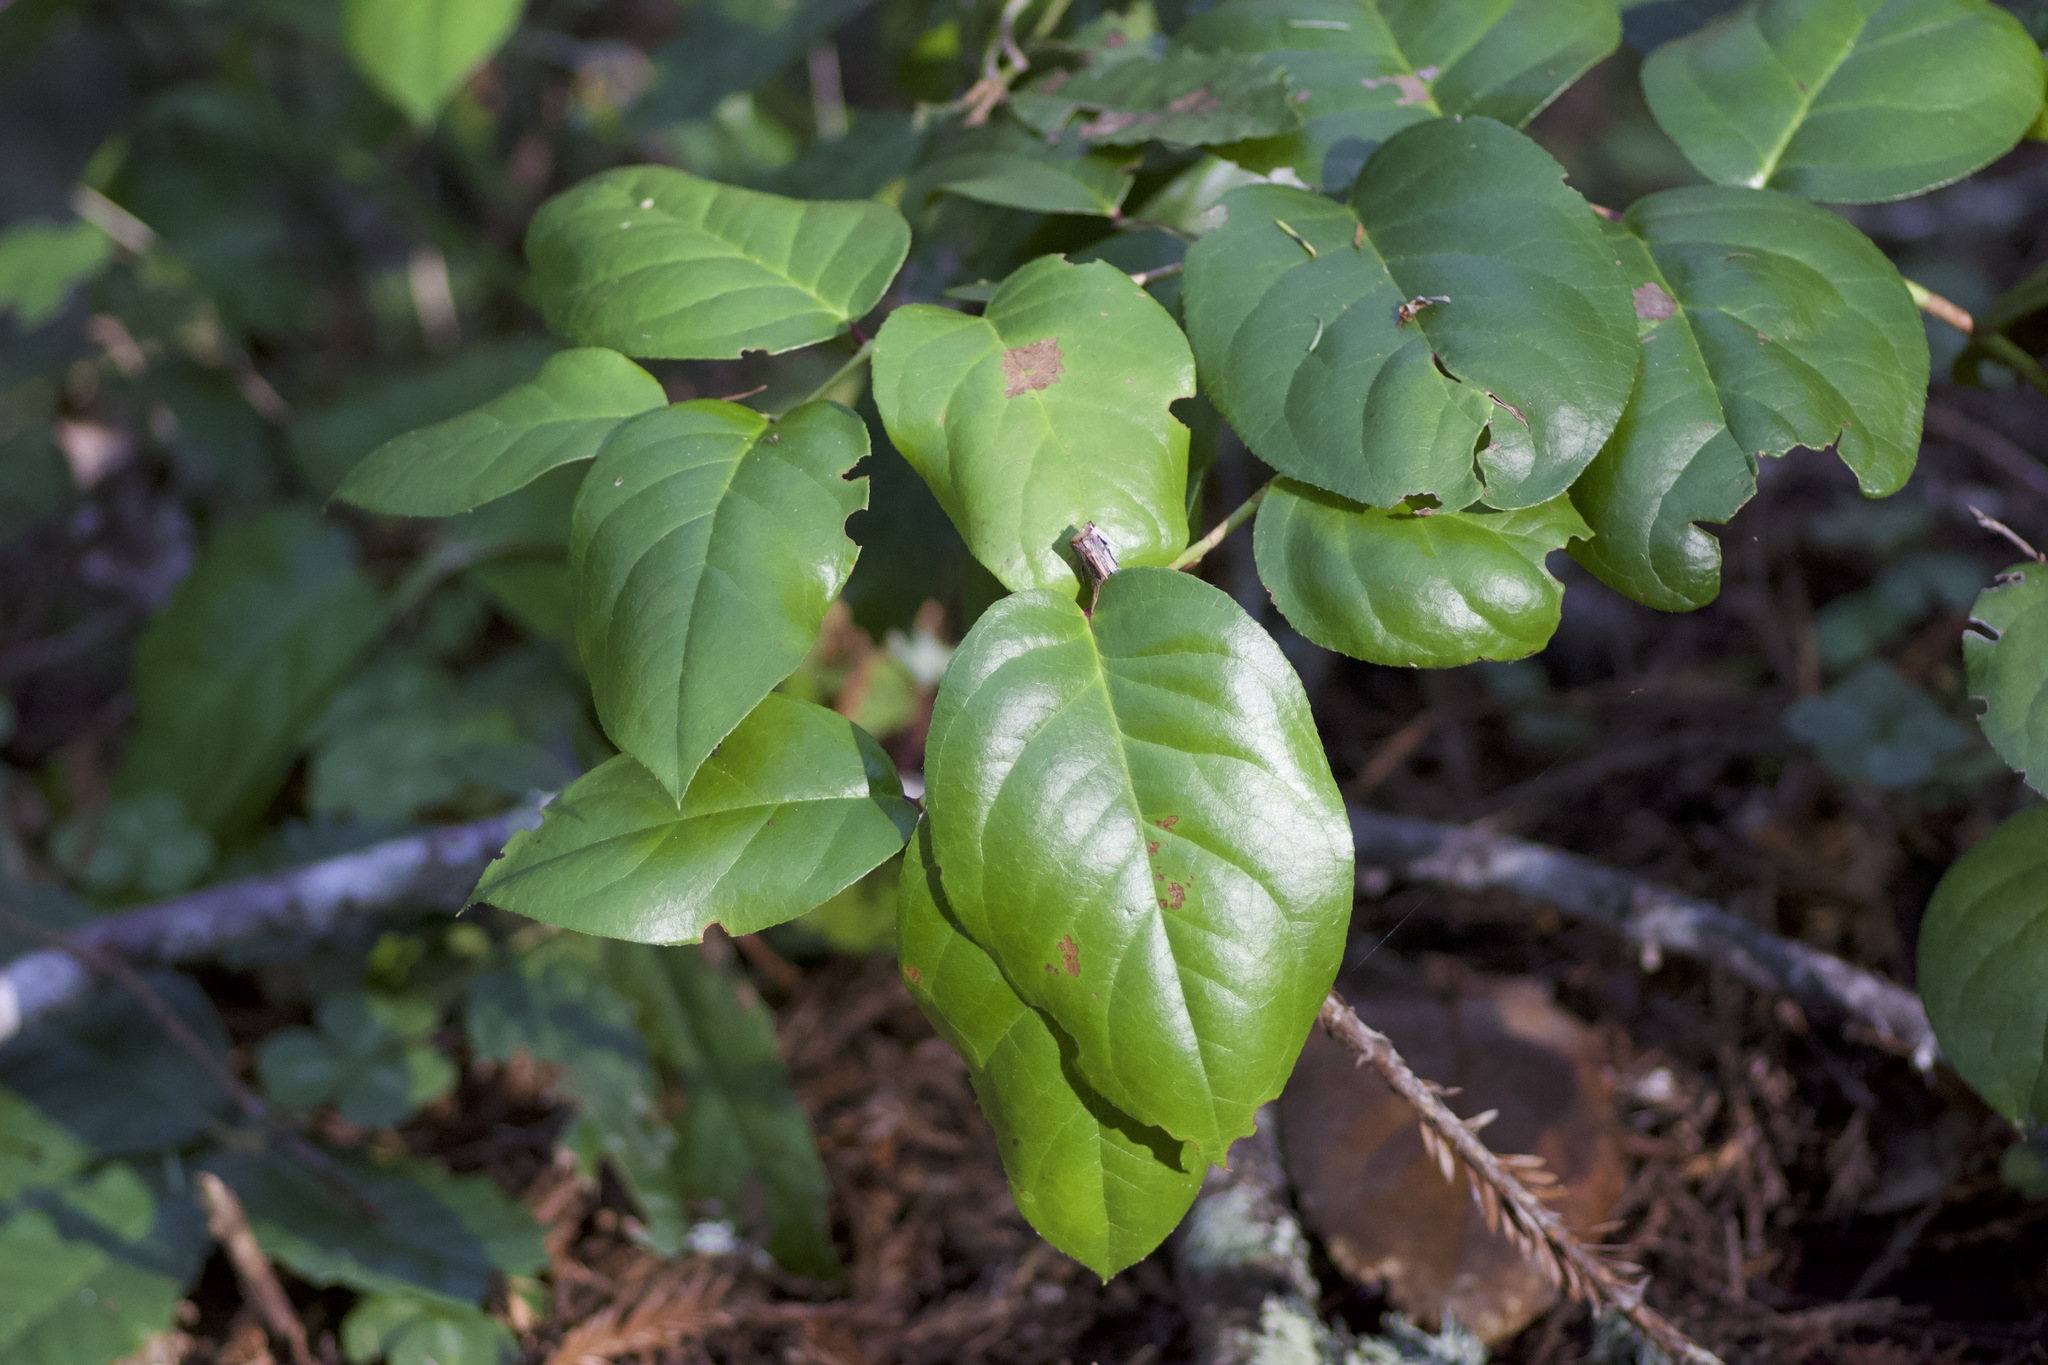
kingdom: Plantae
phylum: Tracheophyta
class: Magnoliopsida
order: Ericales
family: Ericaceae
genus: Gaultheria
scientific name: Gaultheria shallon
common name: Shallon
